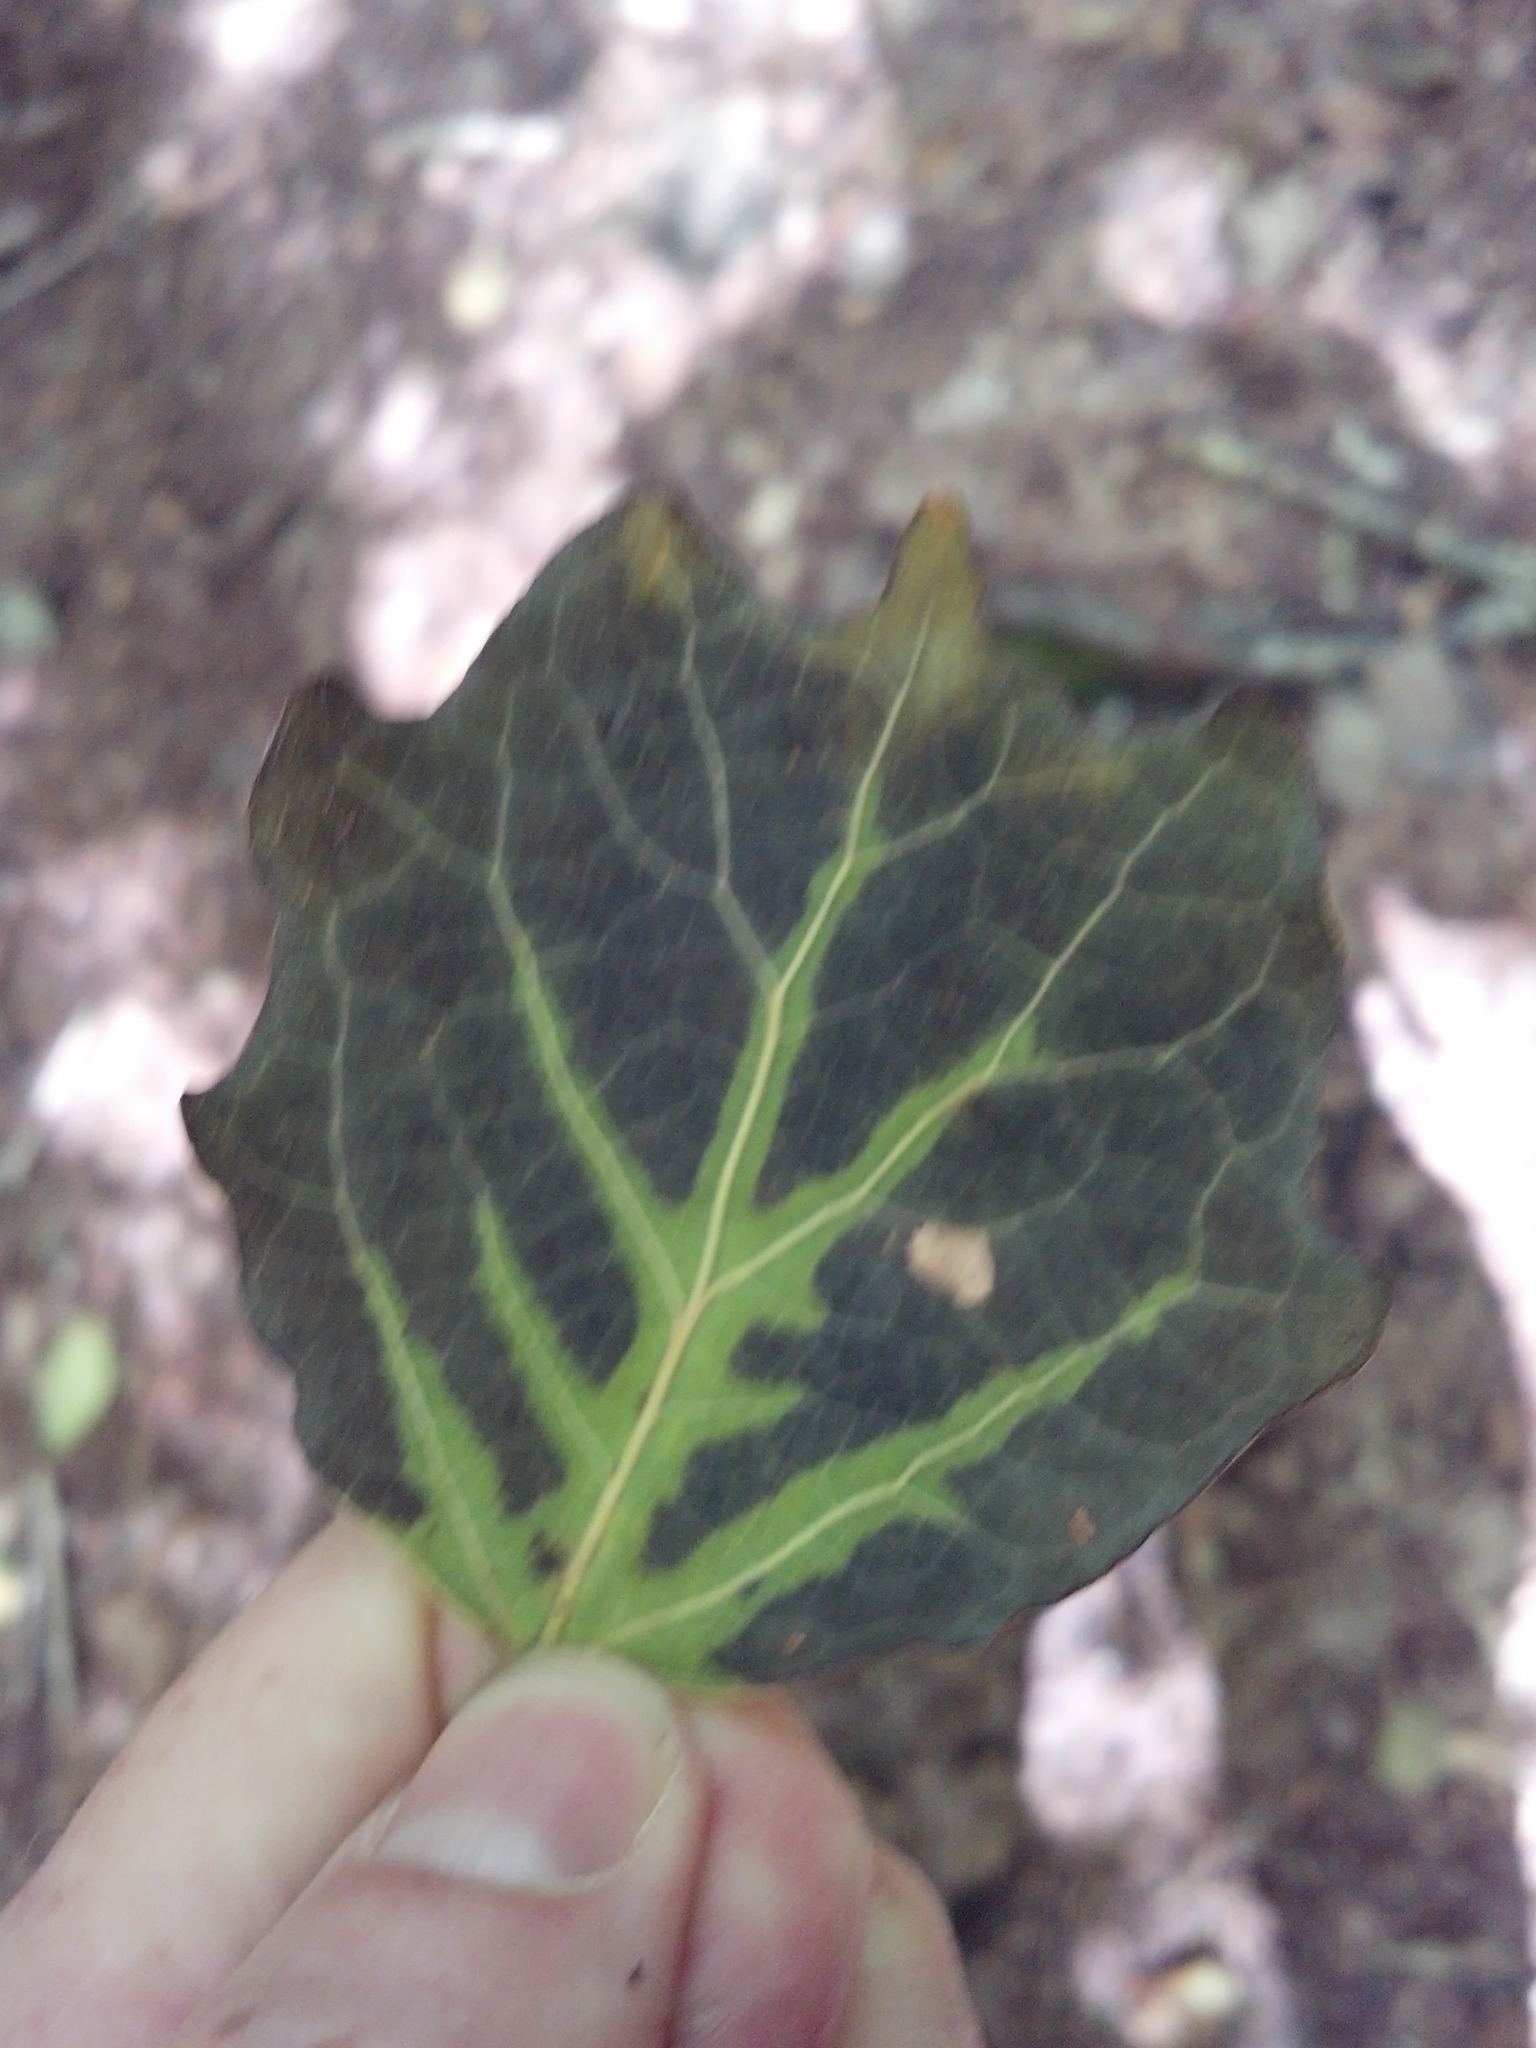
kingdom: Plantae
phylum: Tracheophyta
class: Magnoliopsida
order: Malpighiales
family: Salicaceae
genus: Populus
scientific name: Populus grandidentata
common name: Bigtooth aspen
